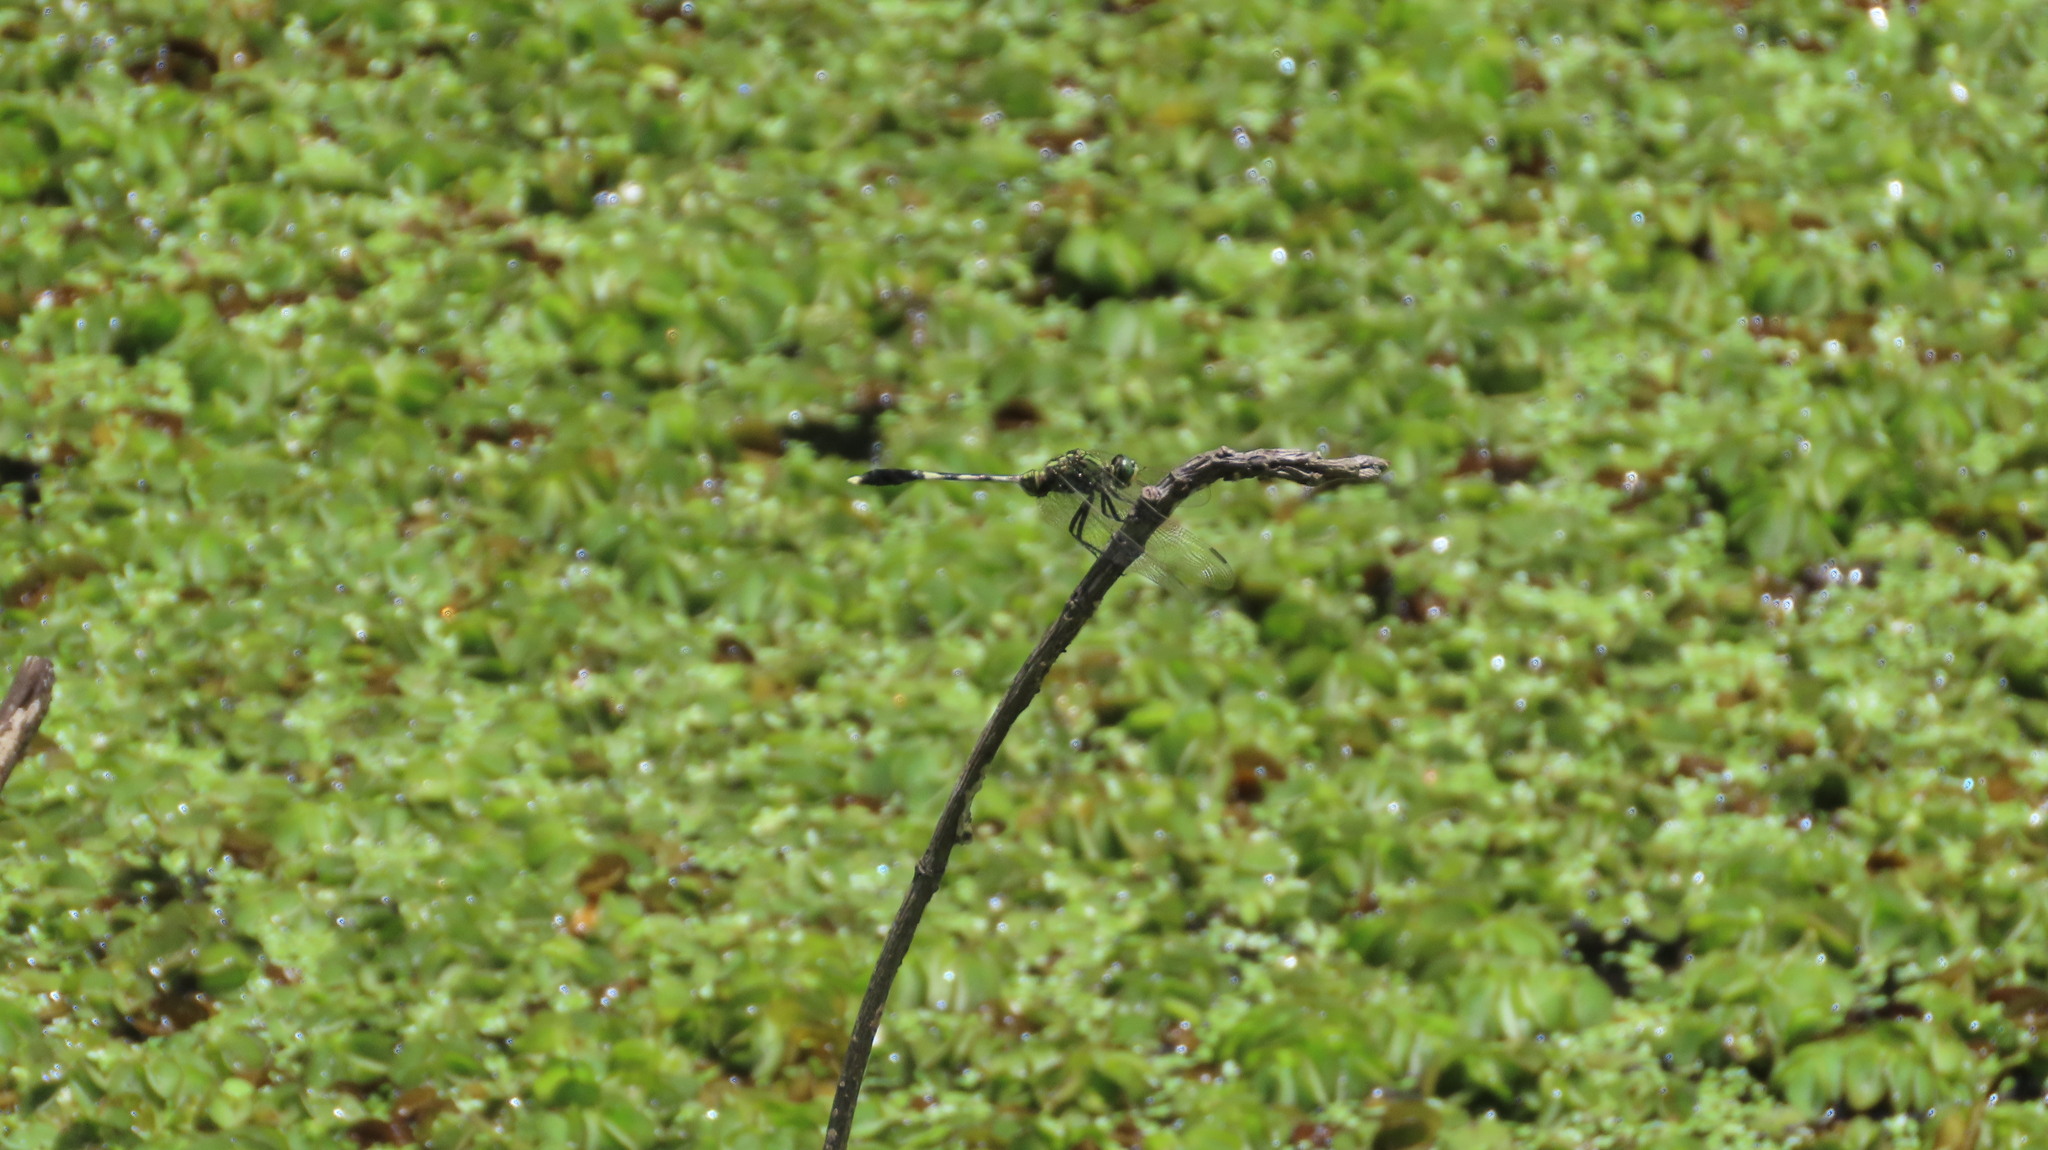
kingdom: Animalia
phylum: Arthropoda
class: Insecta
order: Odonata
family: Libellulidae
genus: Orthetrum
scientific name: Orthetrum sabina
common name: Slender skimmer
